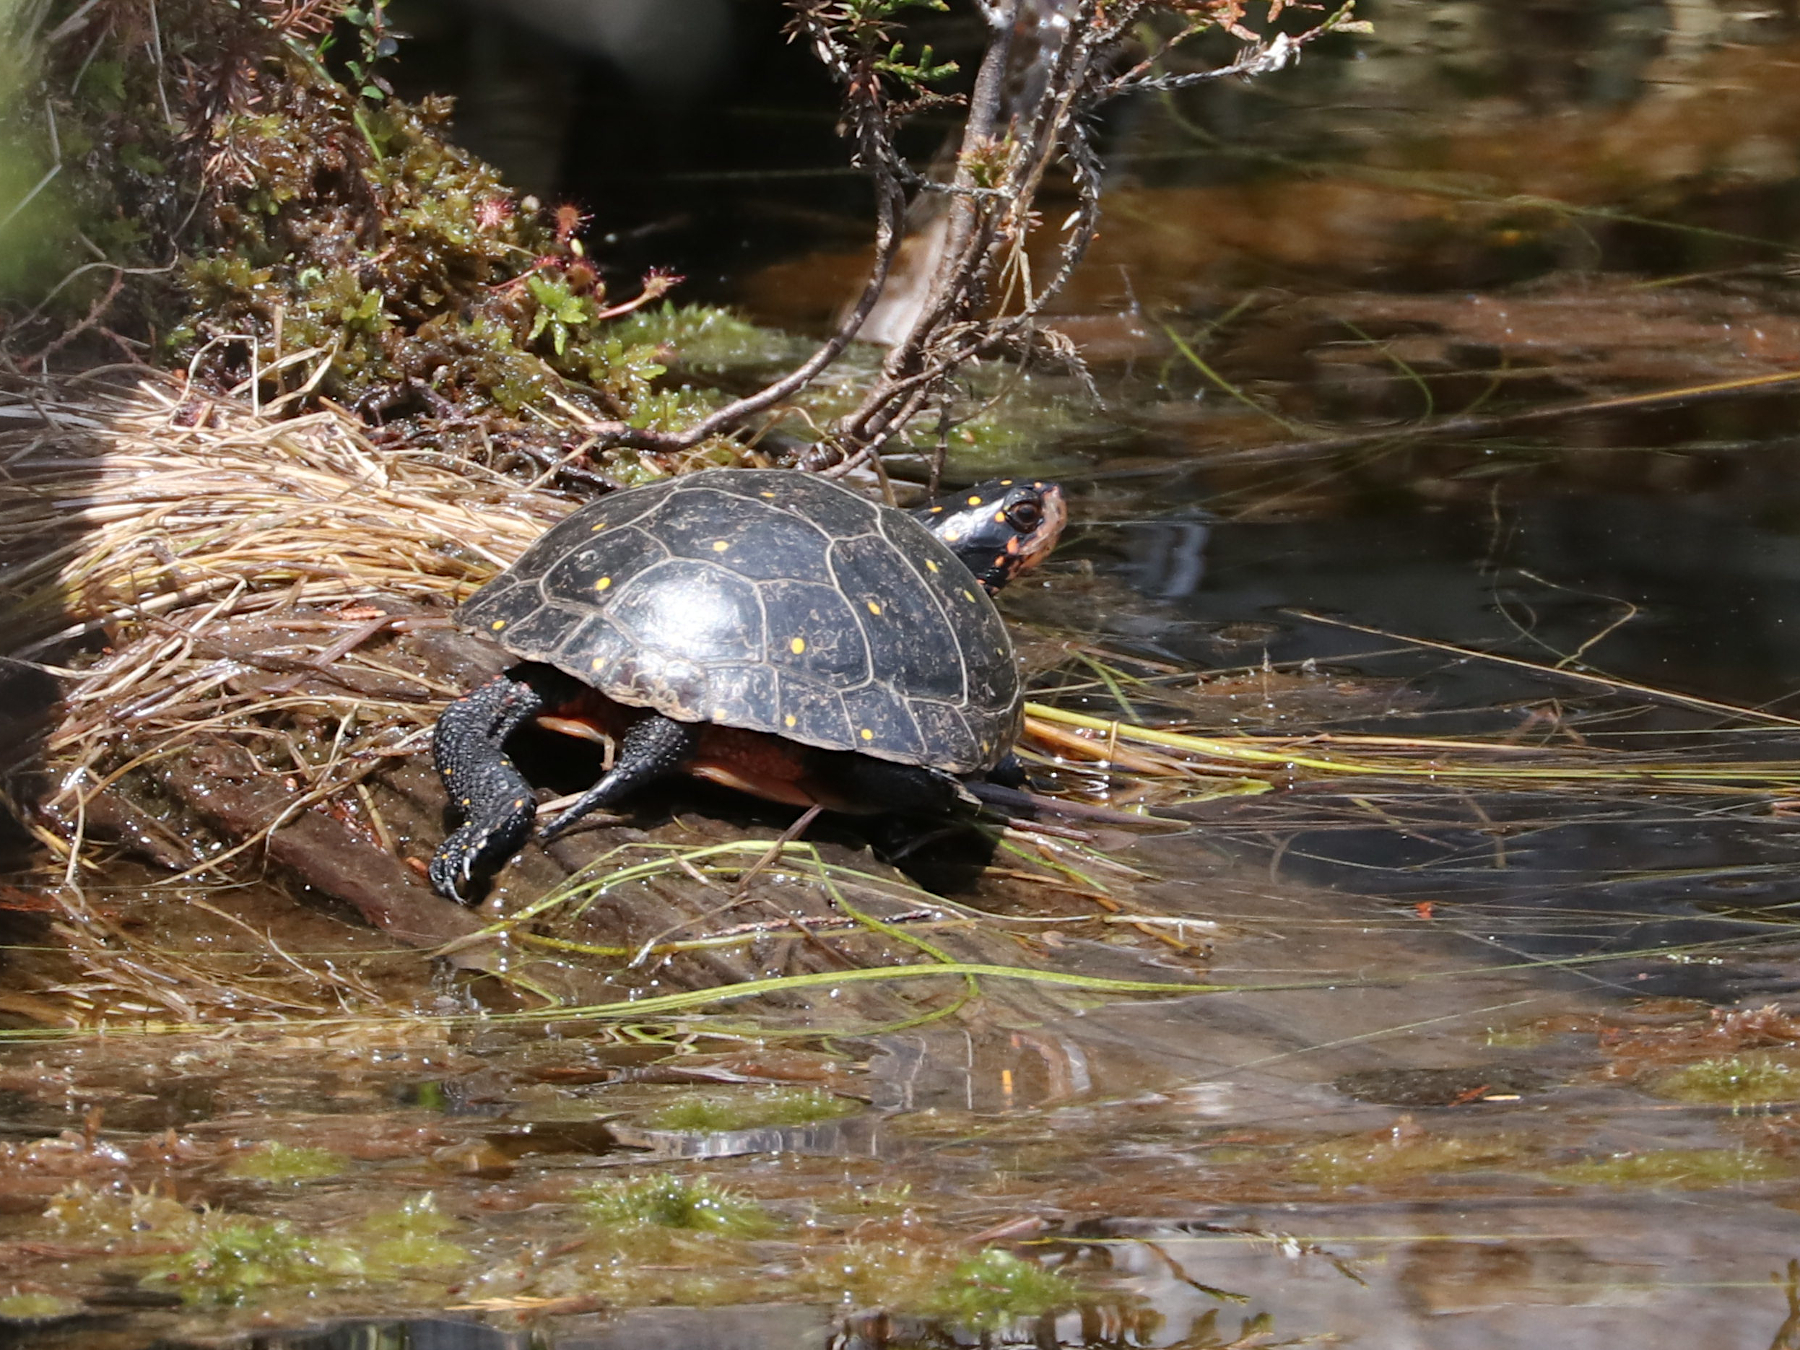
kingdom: Animalia
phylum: Chordata
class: Testudines
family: Emydidae
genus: Clemmys
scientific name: Clemmys guttata
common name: Spotted turtle
